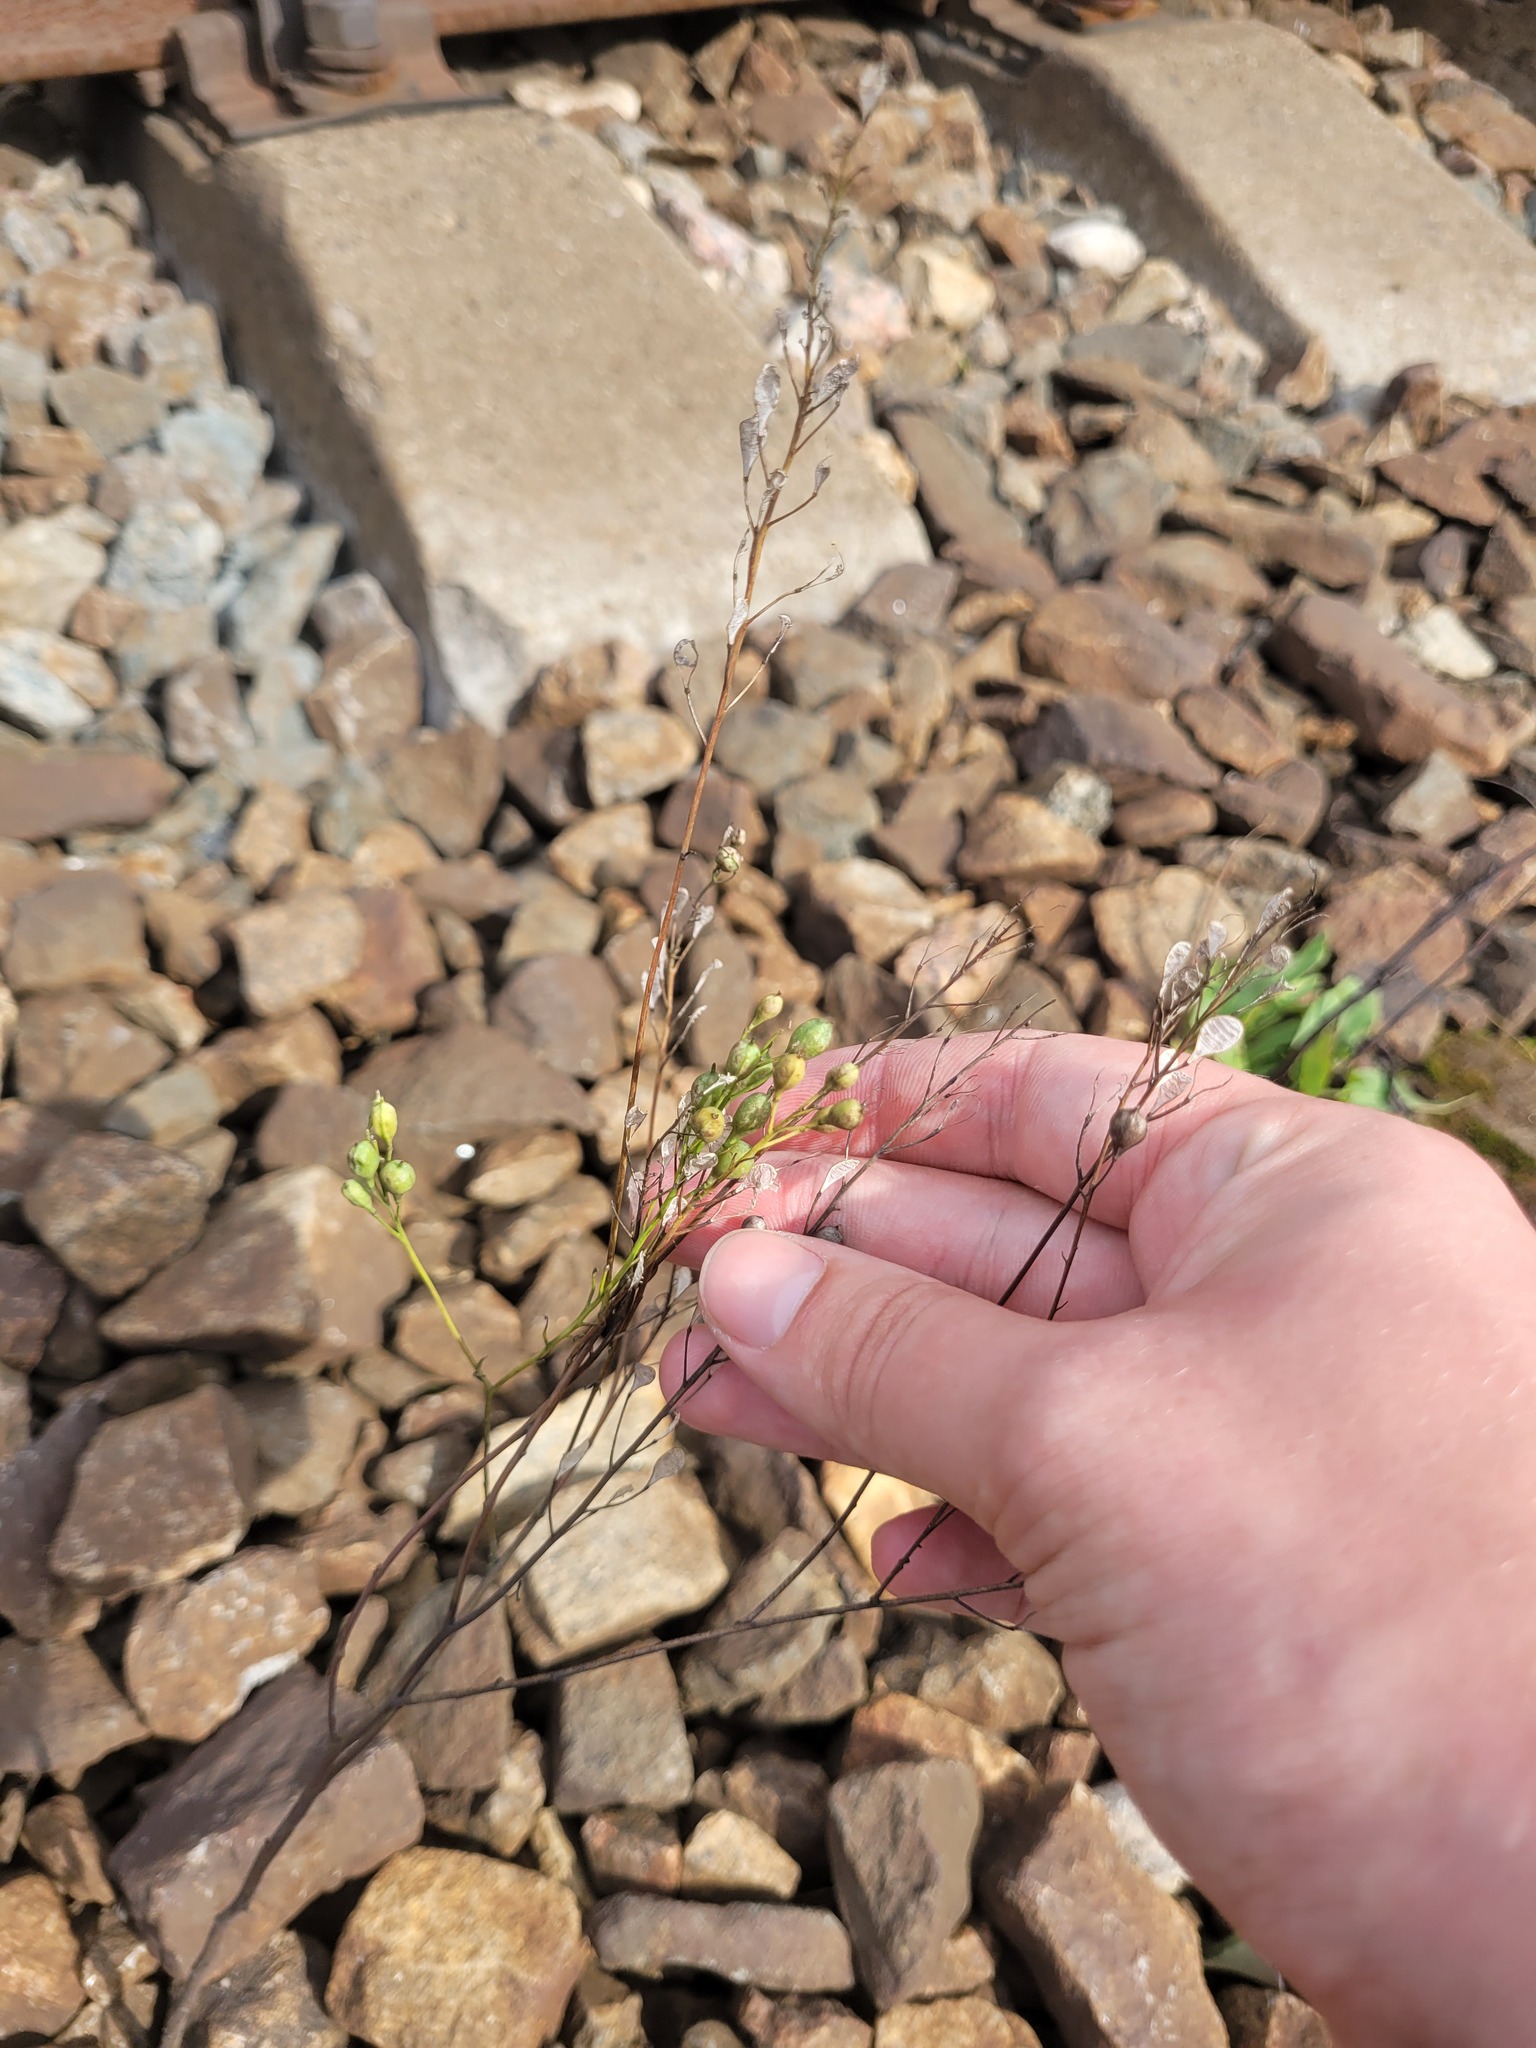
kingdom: Plantae
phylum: Tracheophyta
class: Magnoliopsida
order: Brassicales
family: Brassicaceae
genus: Camelina
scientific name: Camelina sativa
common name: Gold-of-pleasure
